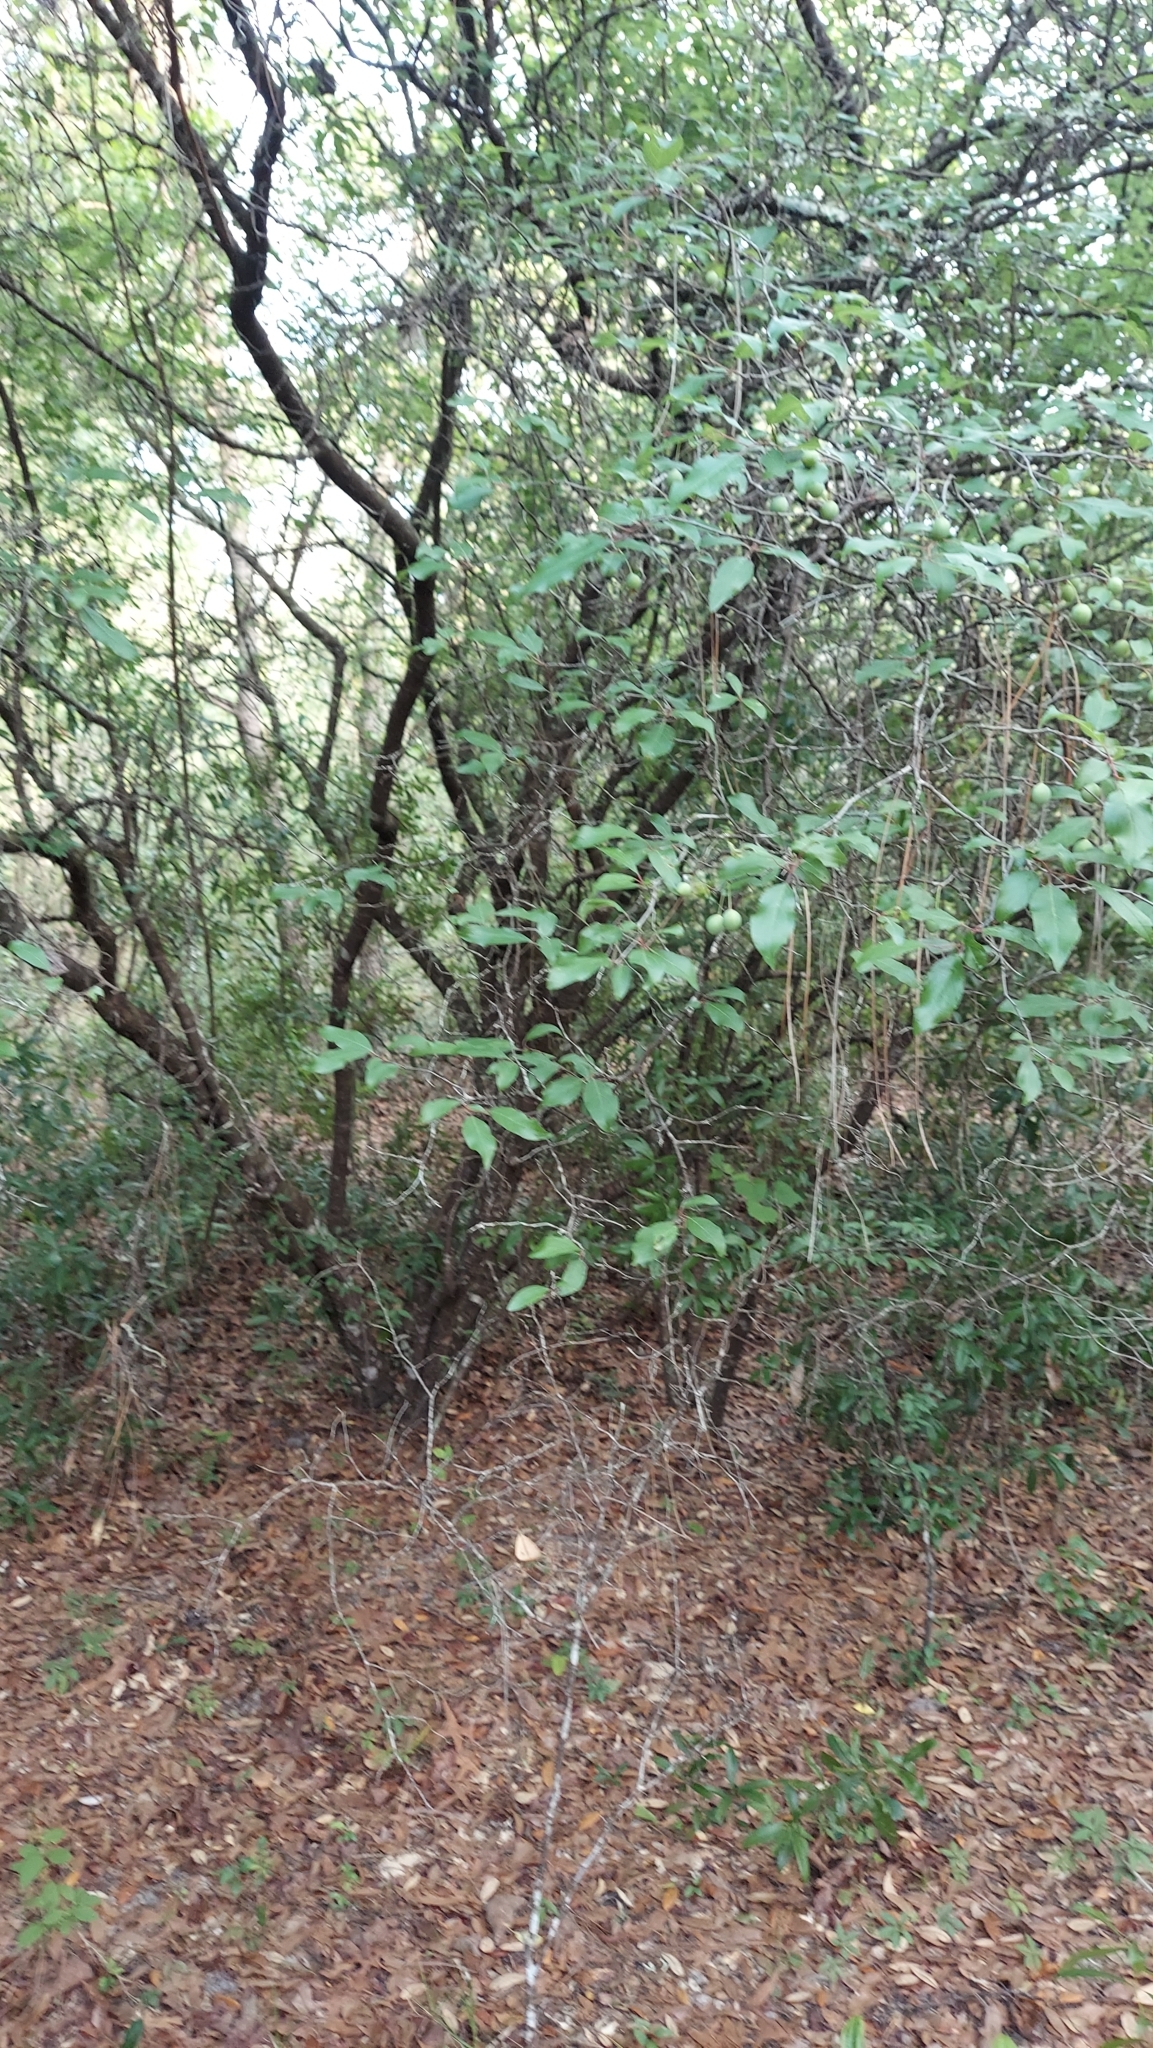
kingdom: Plantae
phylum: Tracheophyta
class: Magnoliopsida
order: Rosales
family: Rosaceae
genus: Prunus
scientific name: Prunus umbellata
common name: Allegheny plum
